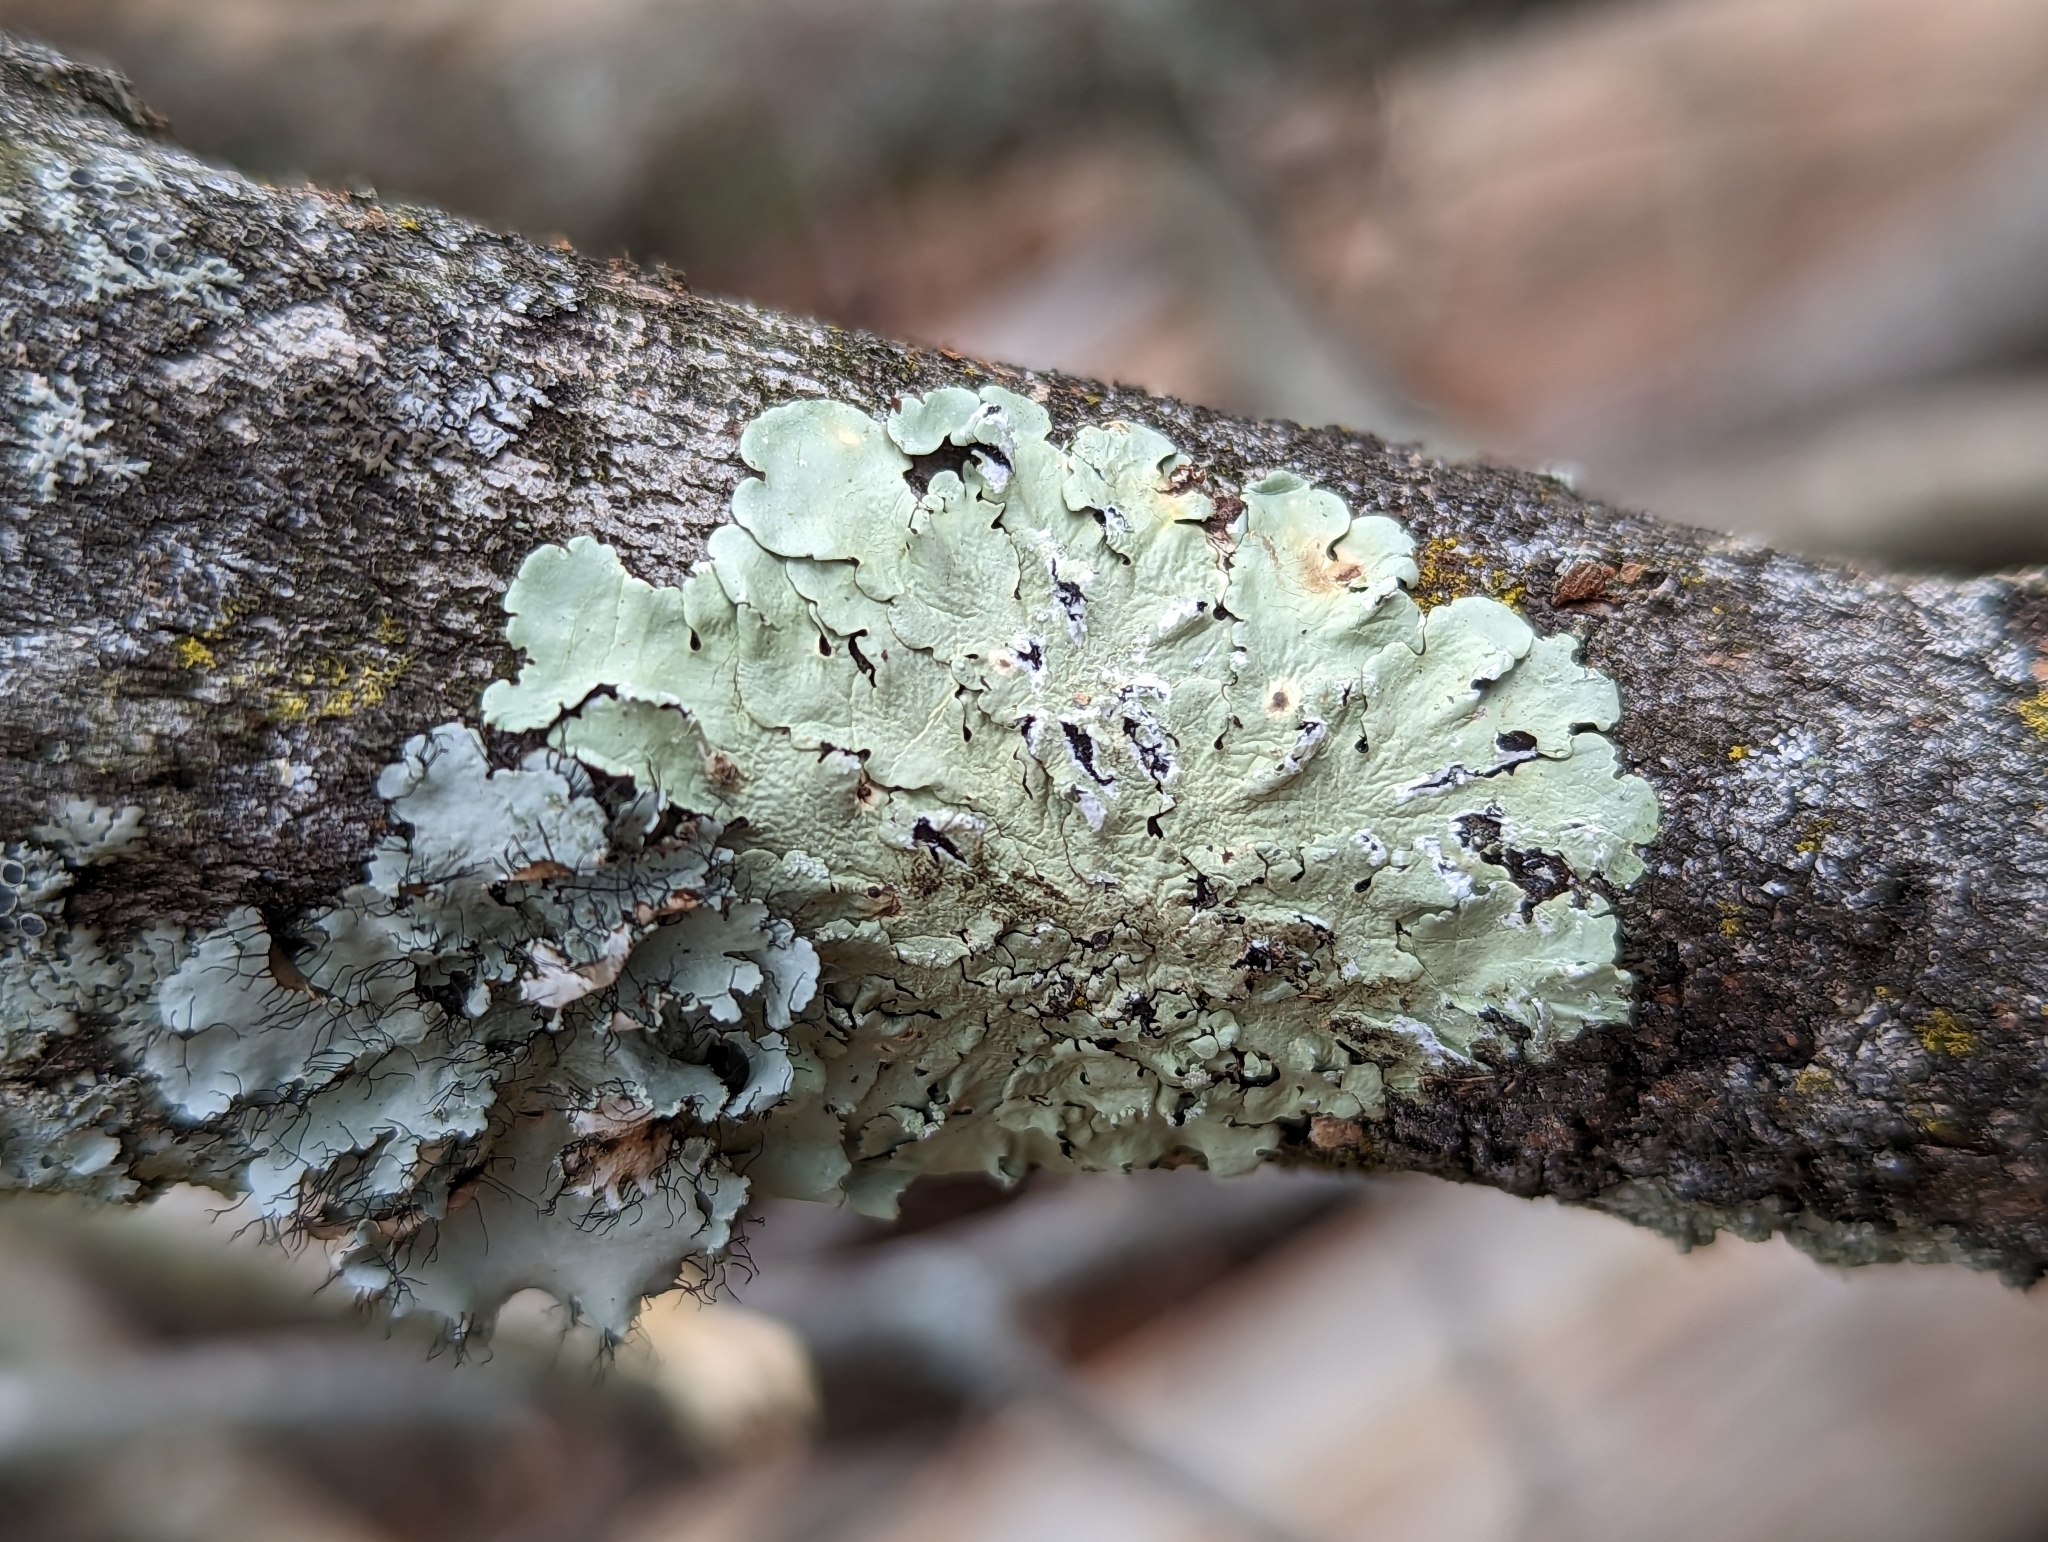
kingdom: Fungi
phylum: Ascomycota
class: Lecanoromycetes
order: Lecanorales
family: Parmeliaceae
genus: Flavoparmelia
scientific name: Flavoparmelia caperata
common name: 40-mile per hour lichen
